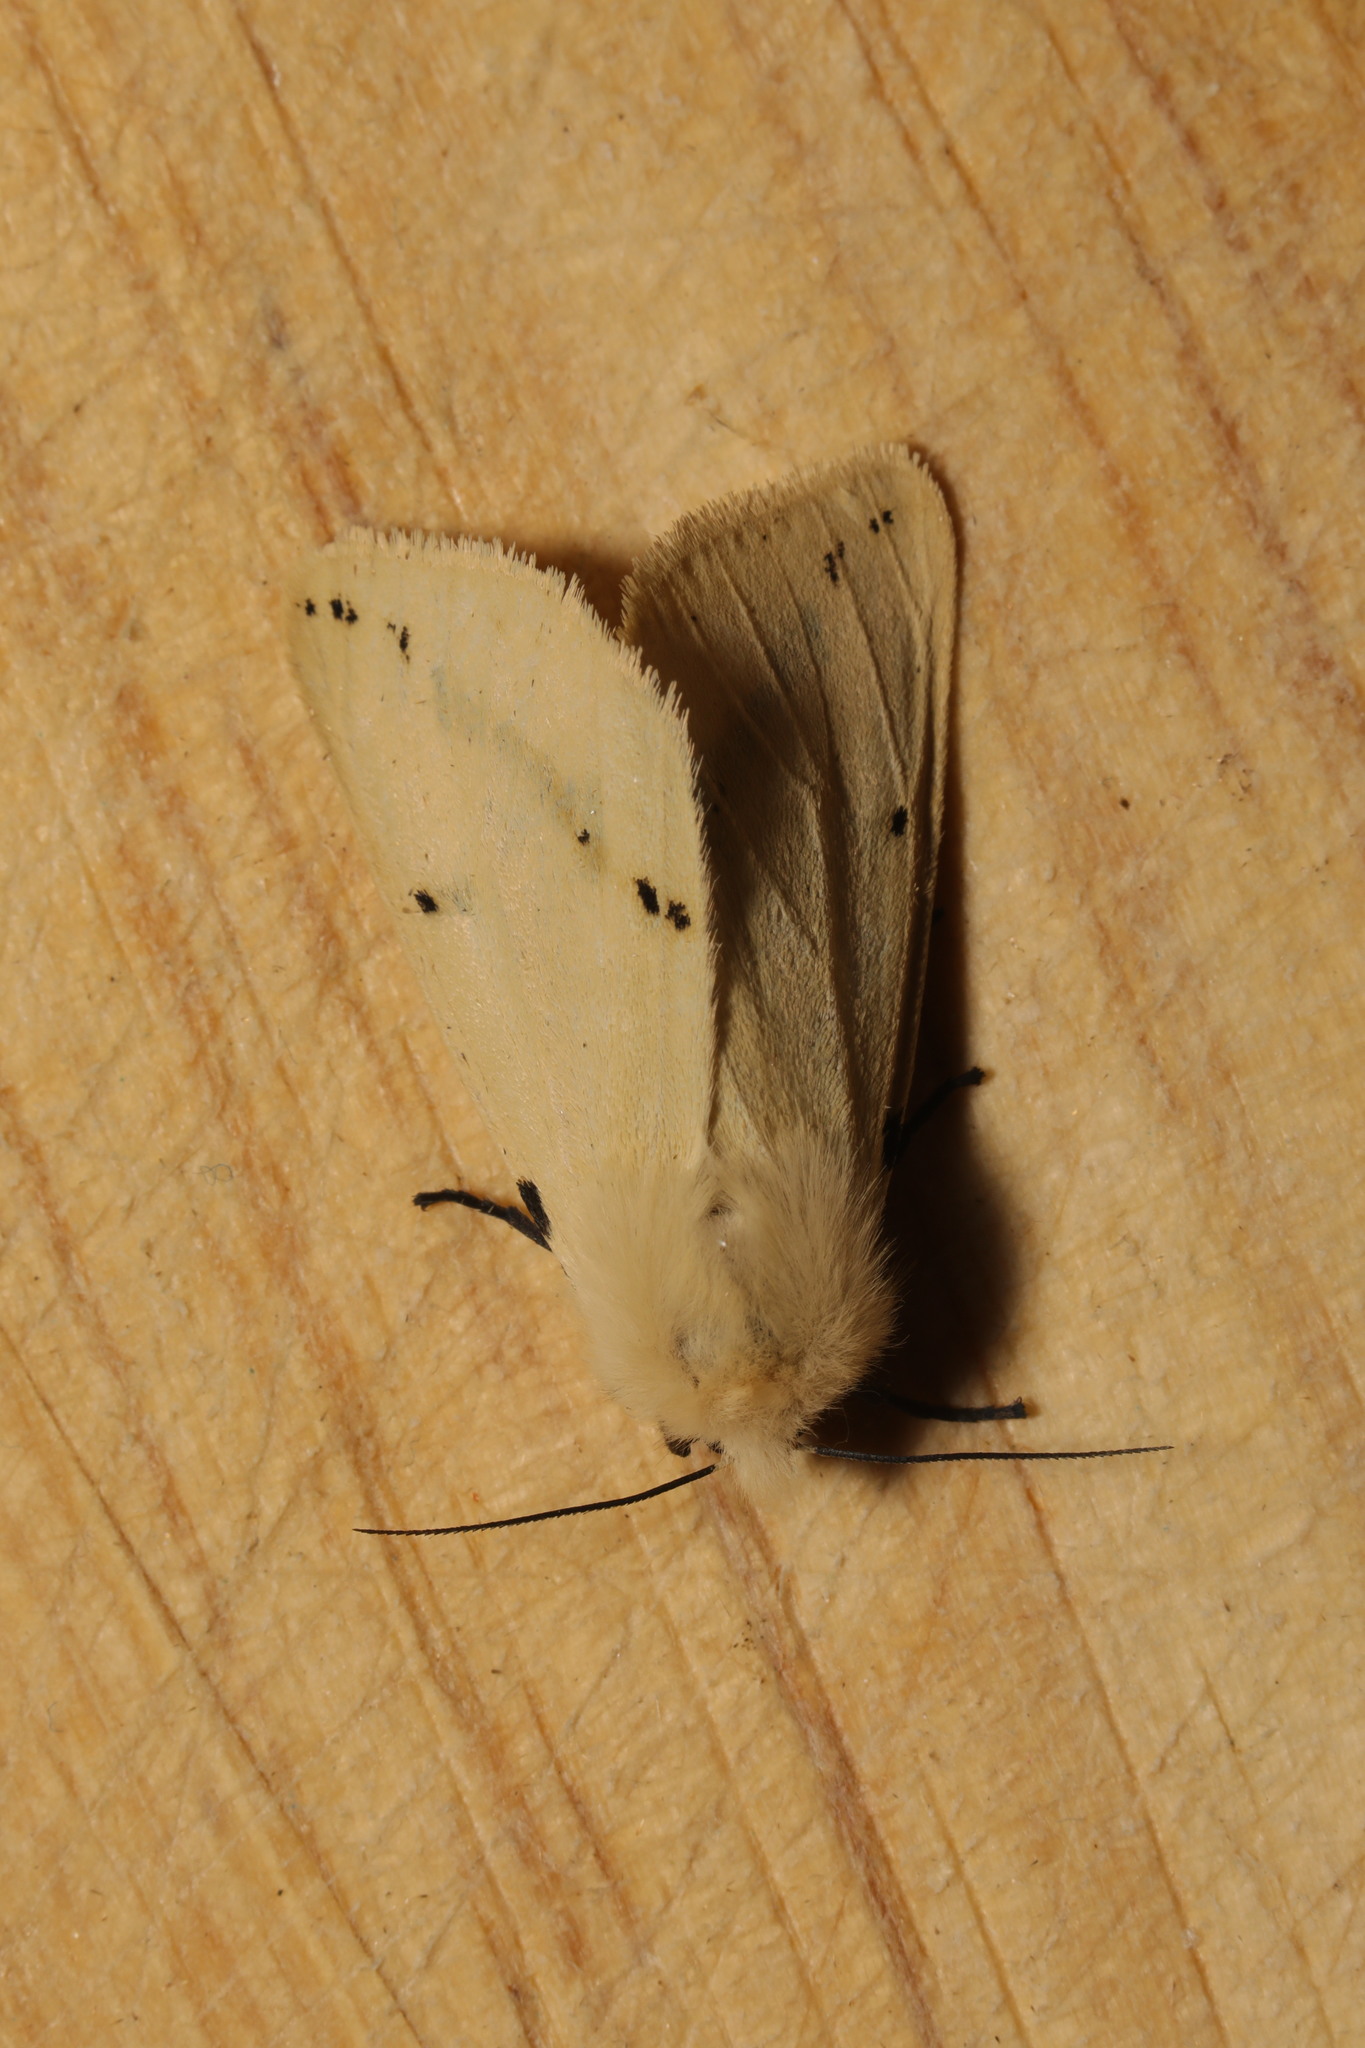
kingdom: Animalia
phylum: Arthropoda
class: Insecta
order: Lepidoptera
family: Erebidae
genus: Spilarctia
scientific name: Spilarctia lutea
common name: Buff ermine
